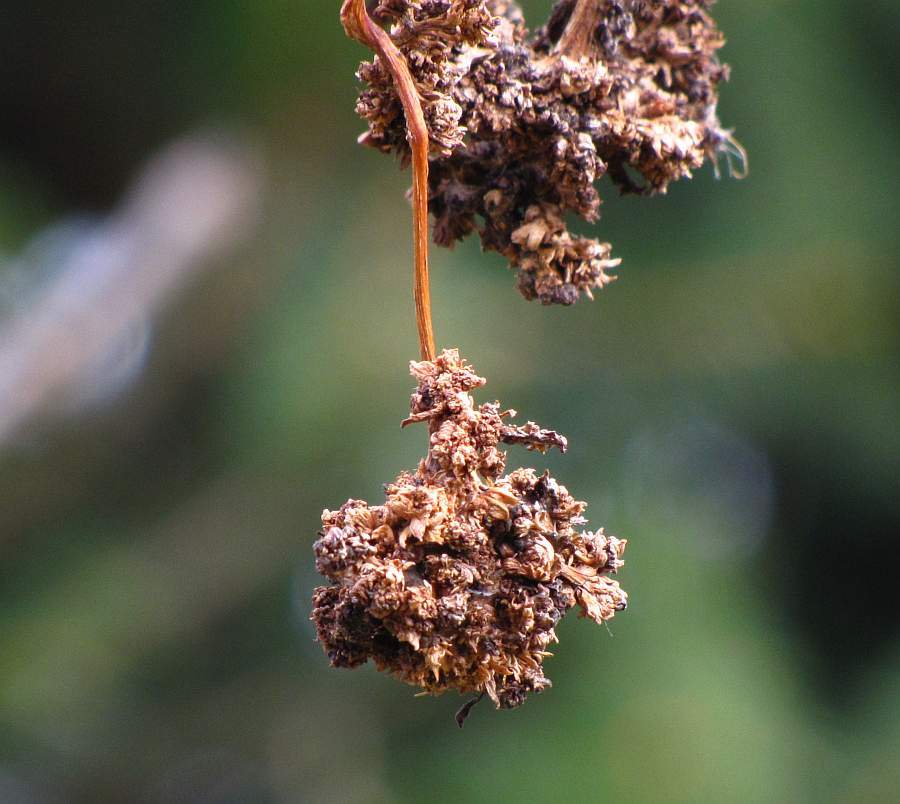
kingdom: Animalia
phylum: Arthropoda
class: Arachnida
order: Trombidiformes
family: Eriophyidae
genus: Aceria
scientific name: Aceria fraxiniflora
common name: Ash flower gall mite
